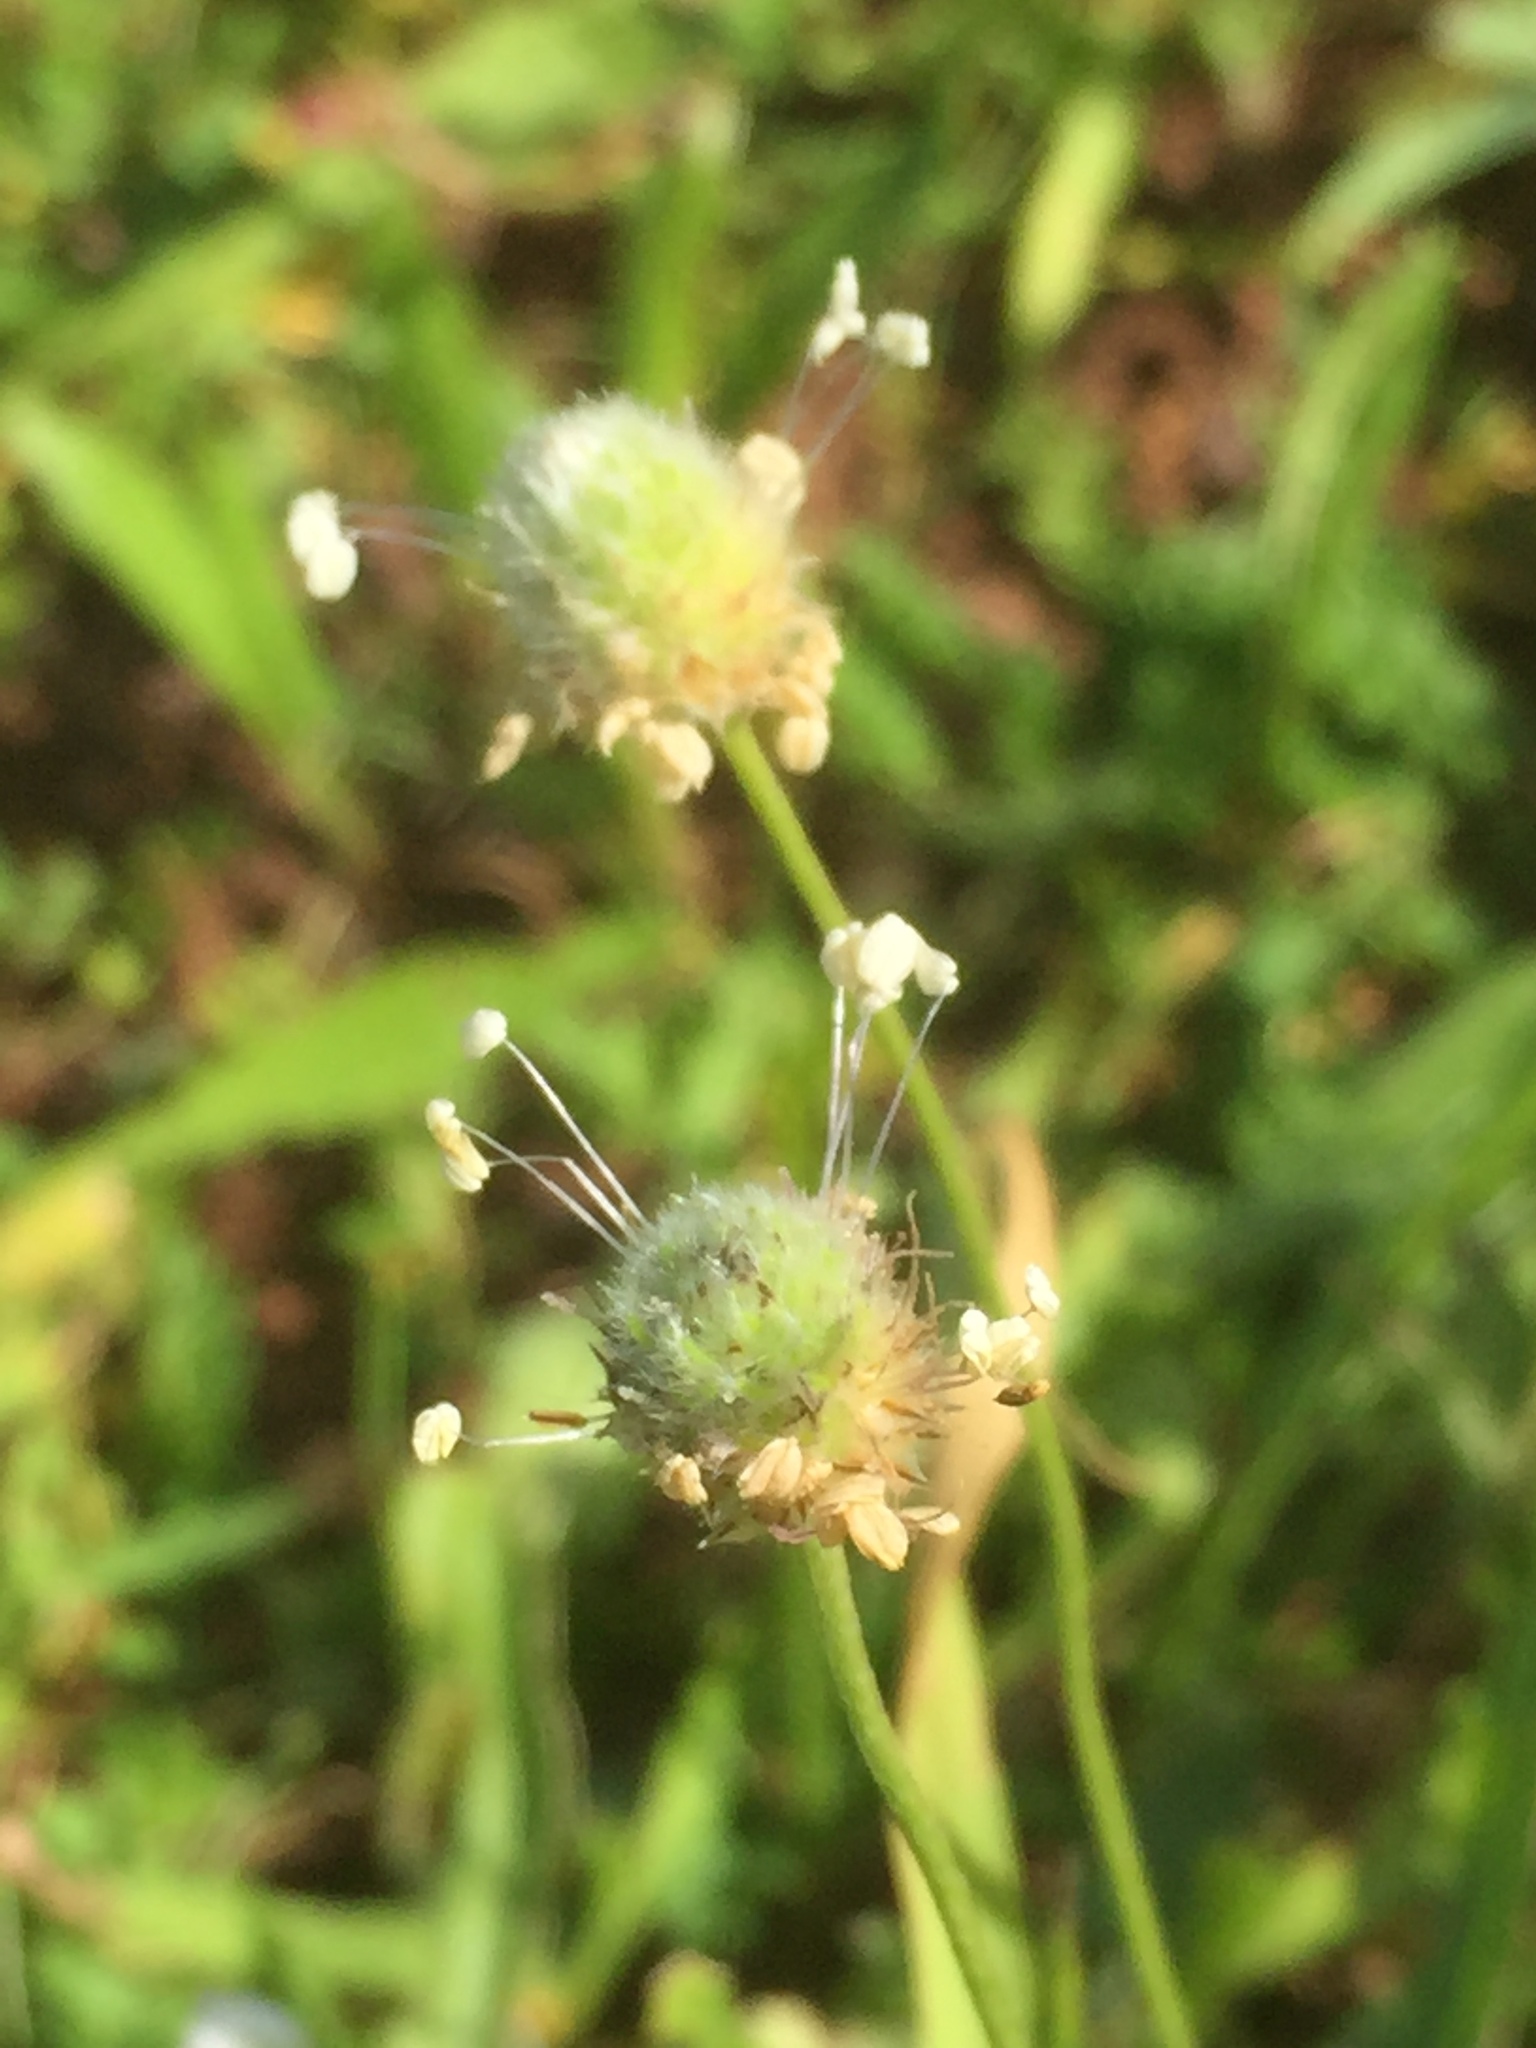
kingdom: Plantae
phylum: Tracheophyta
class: Magnoliopsida
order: Lamiales
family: Plantaginaceae
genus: Plantago
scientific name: Plantago lanceolata
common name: Ribwort plantain
